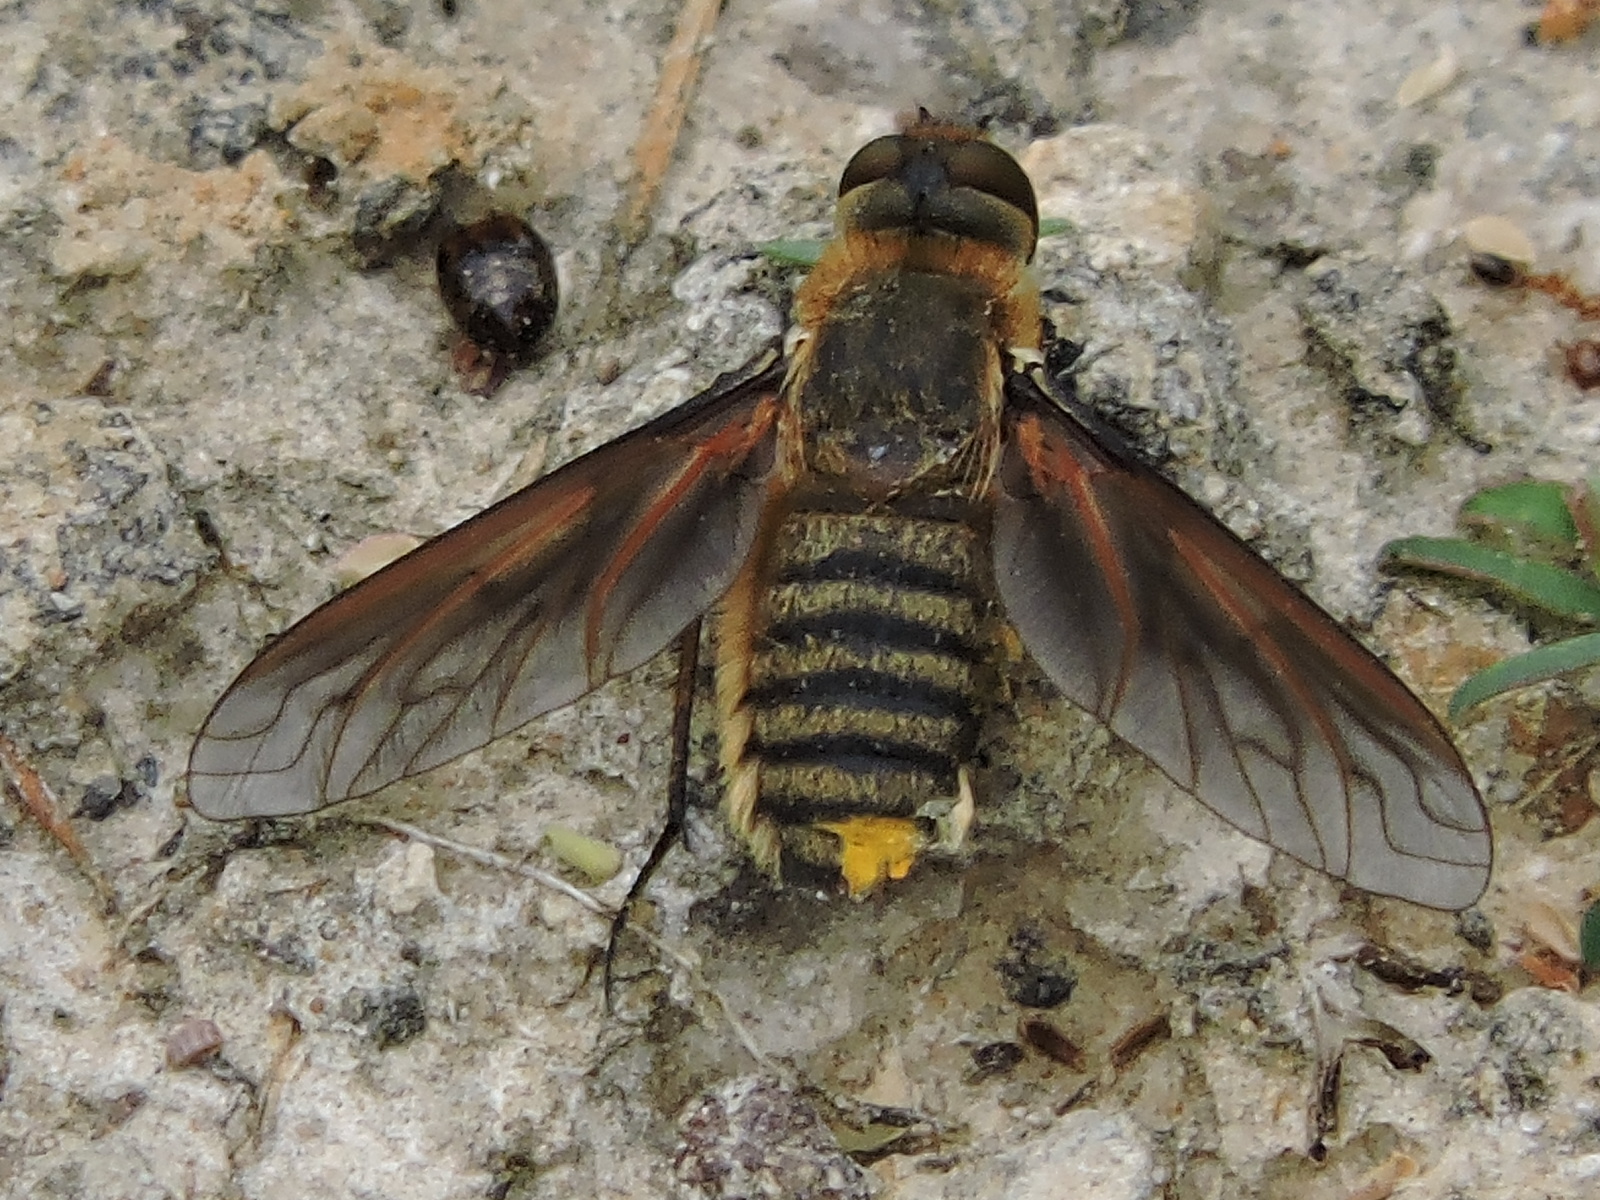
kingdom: Animalia
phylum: Arthropoda
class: Insecta
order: Diptera
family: Bombyliidae
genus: Poecilanthrax
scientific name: Poecilanthrax lucifer
